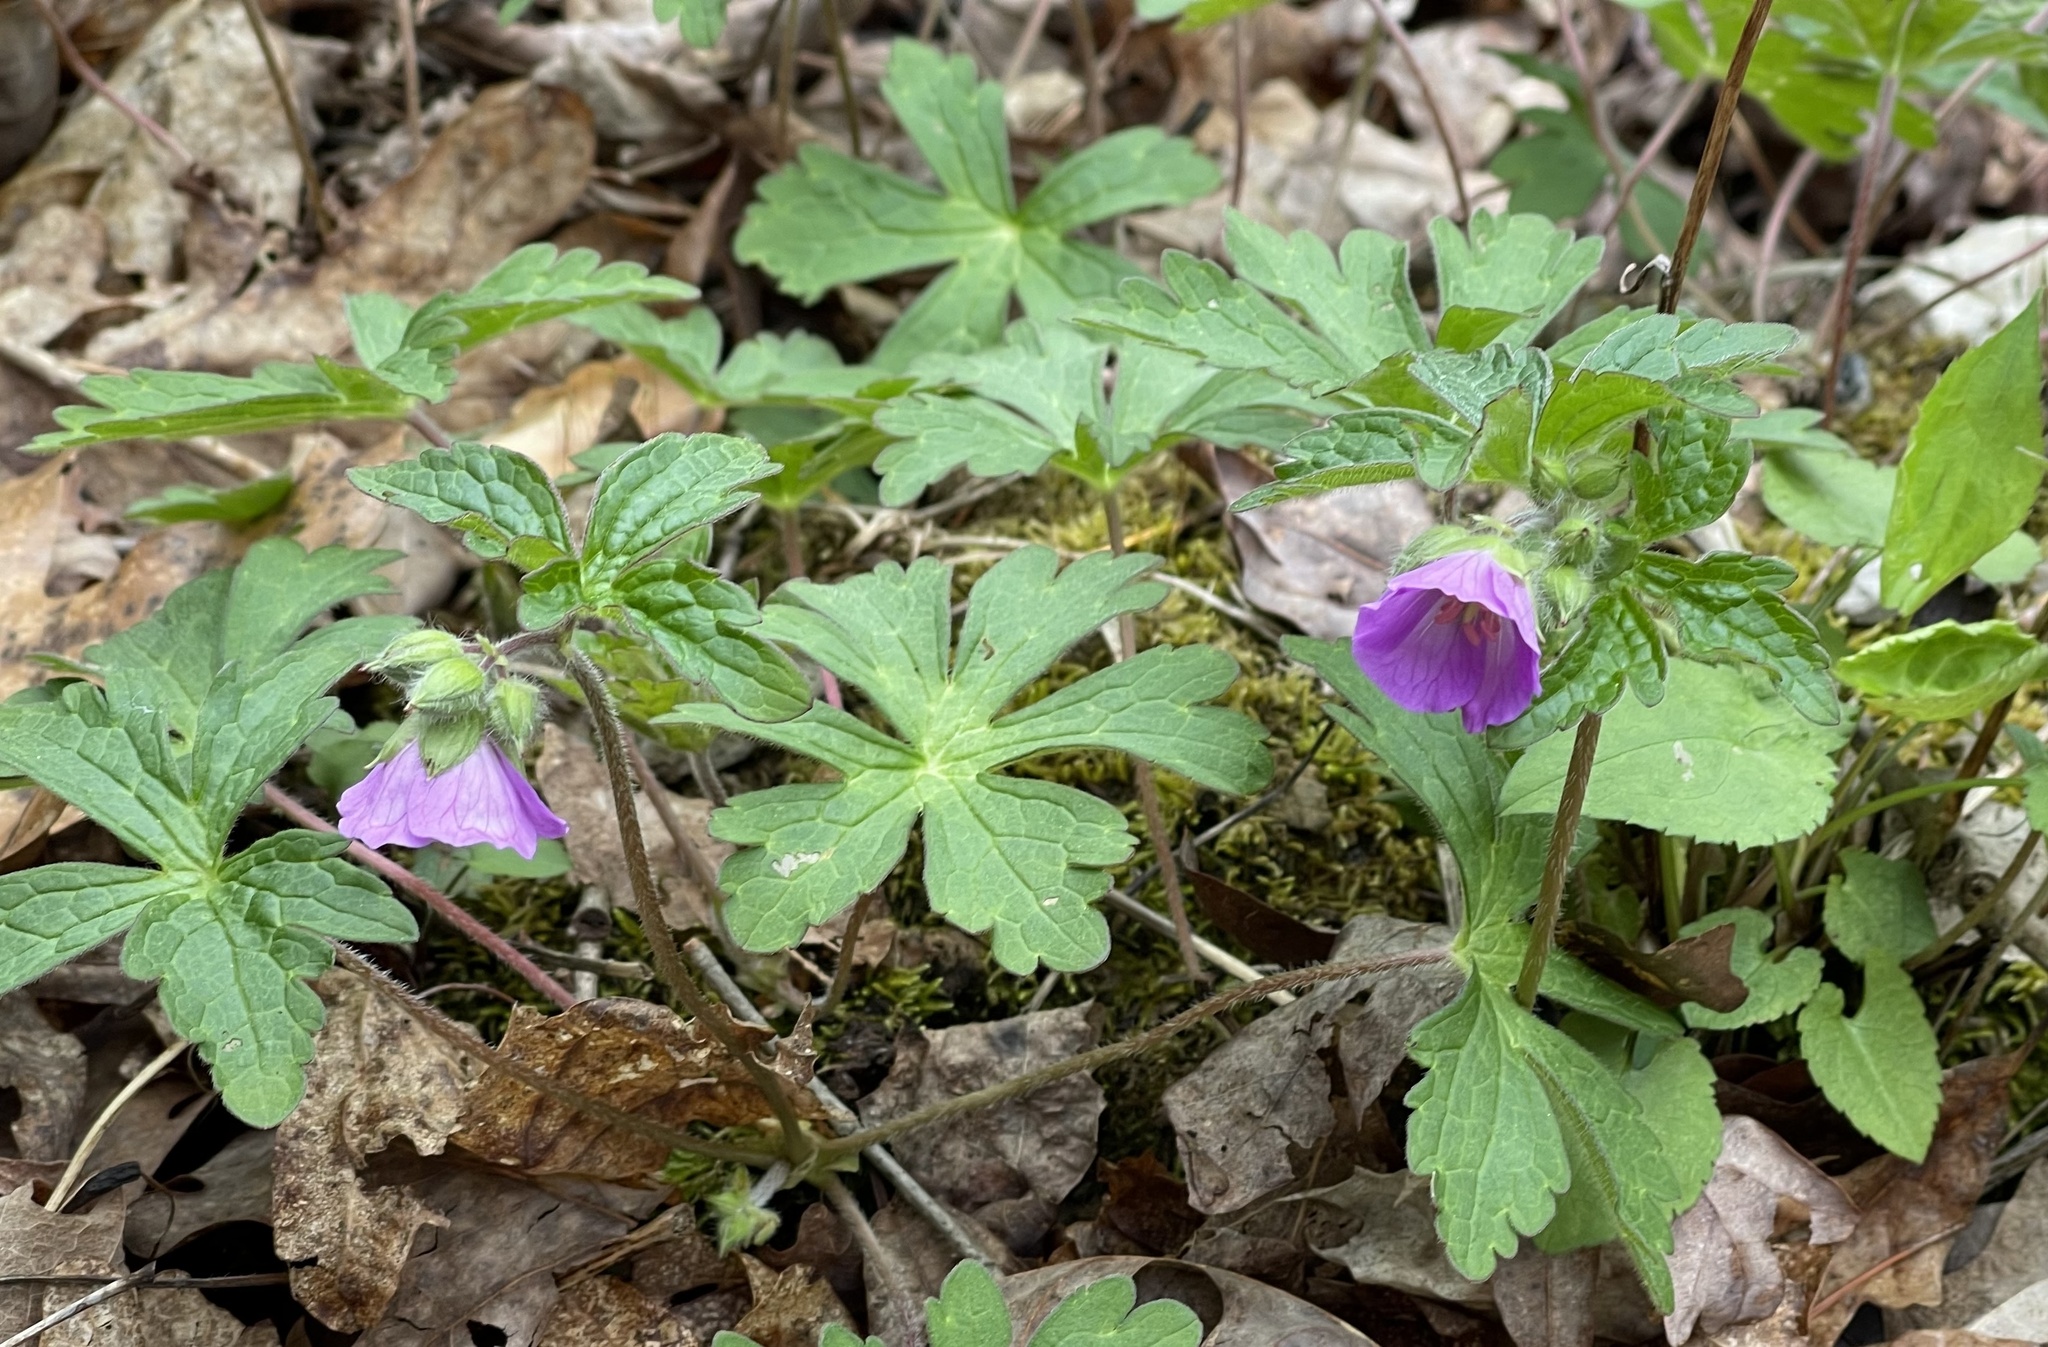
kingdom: Plantae
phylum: Tracheophyta
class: Magnoliopsida
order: Geraniales
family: Geraniaceae
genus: Geranium
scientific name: Geranium maculatum
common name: Spotted geranium
